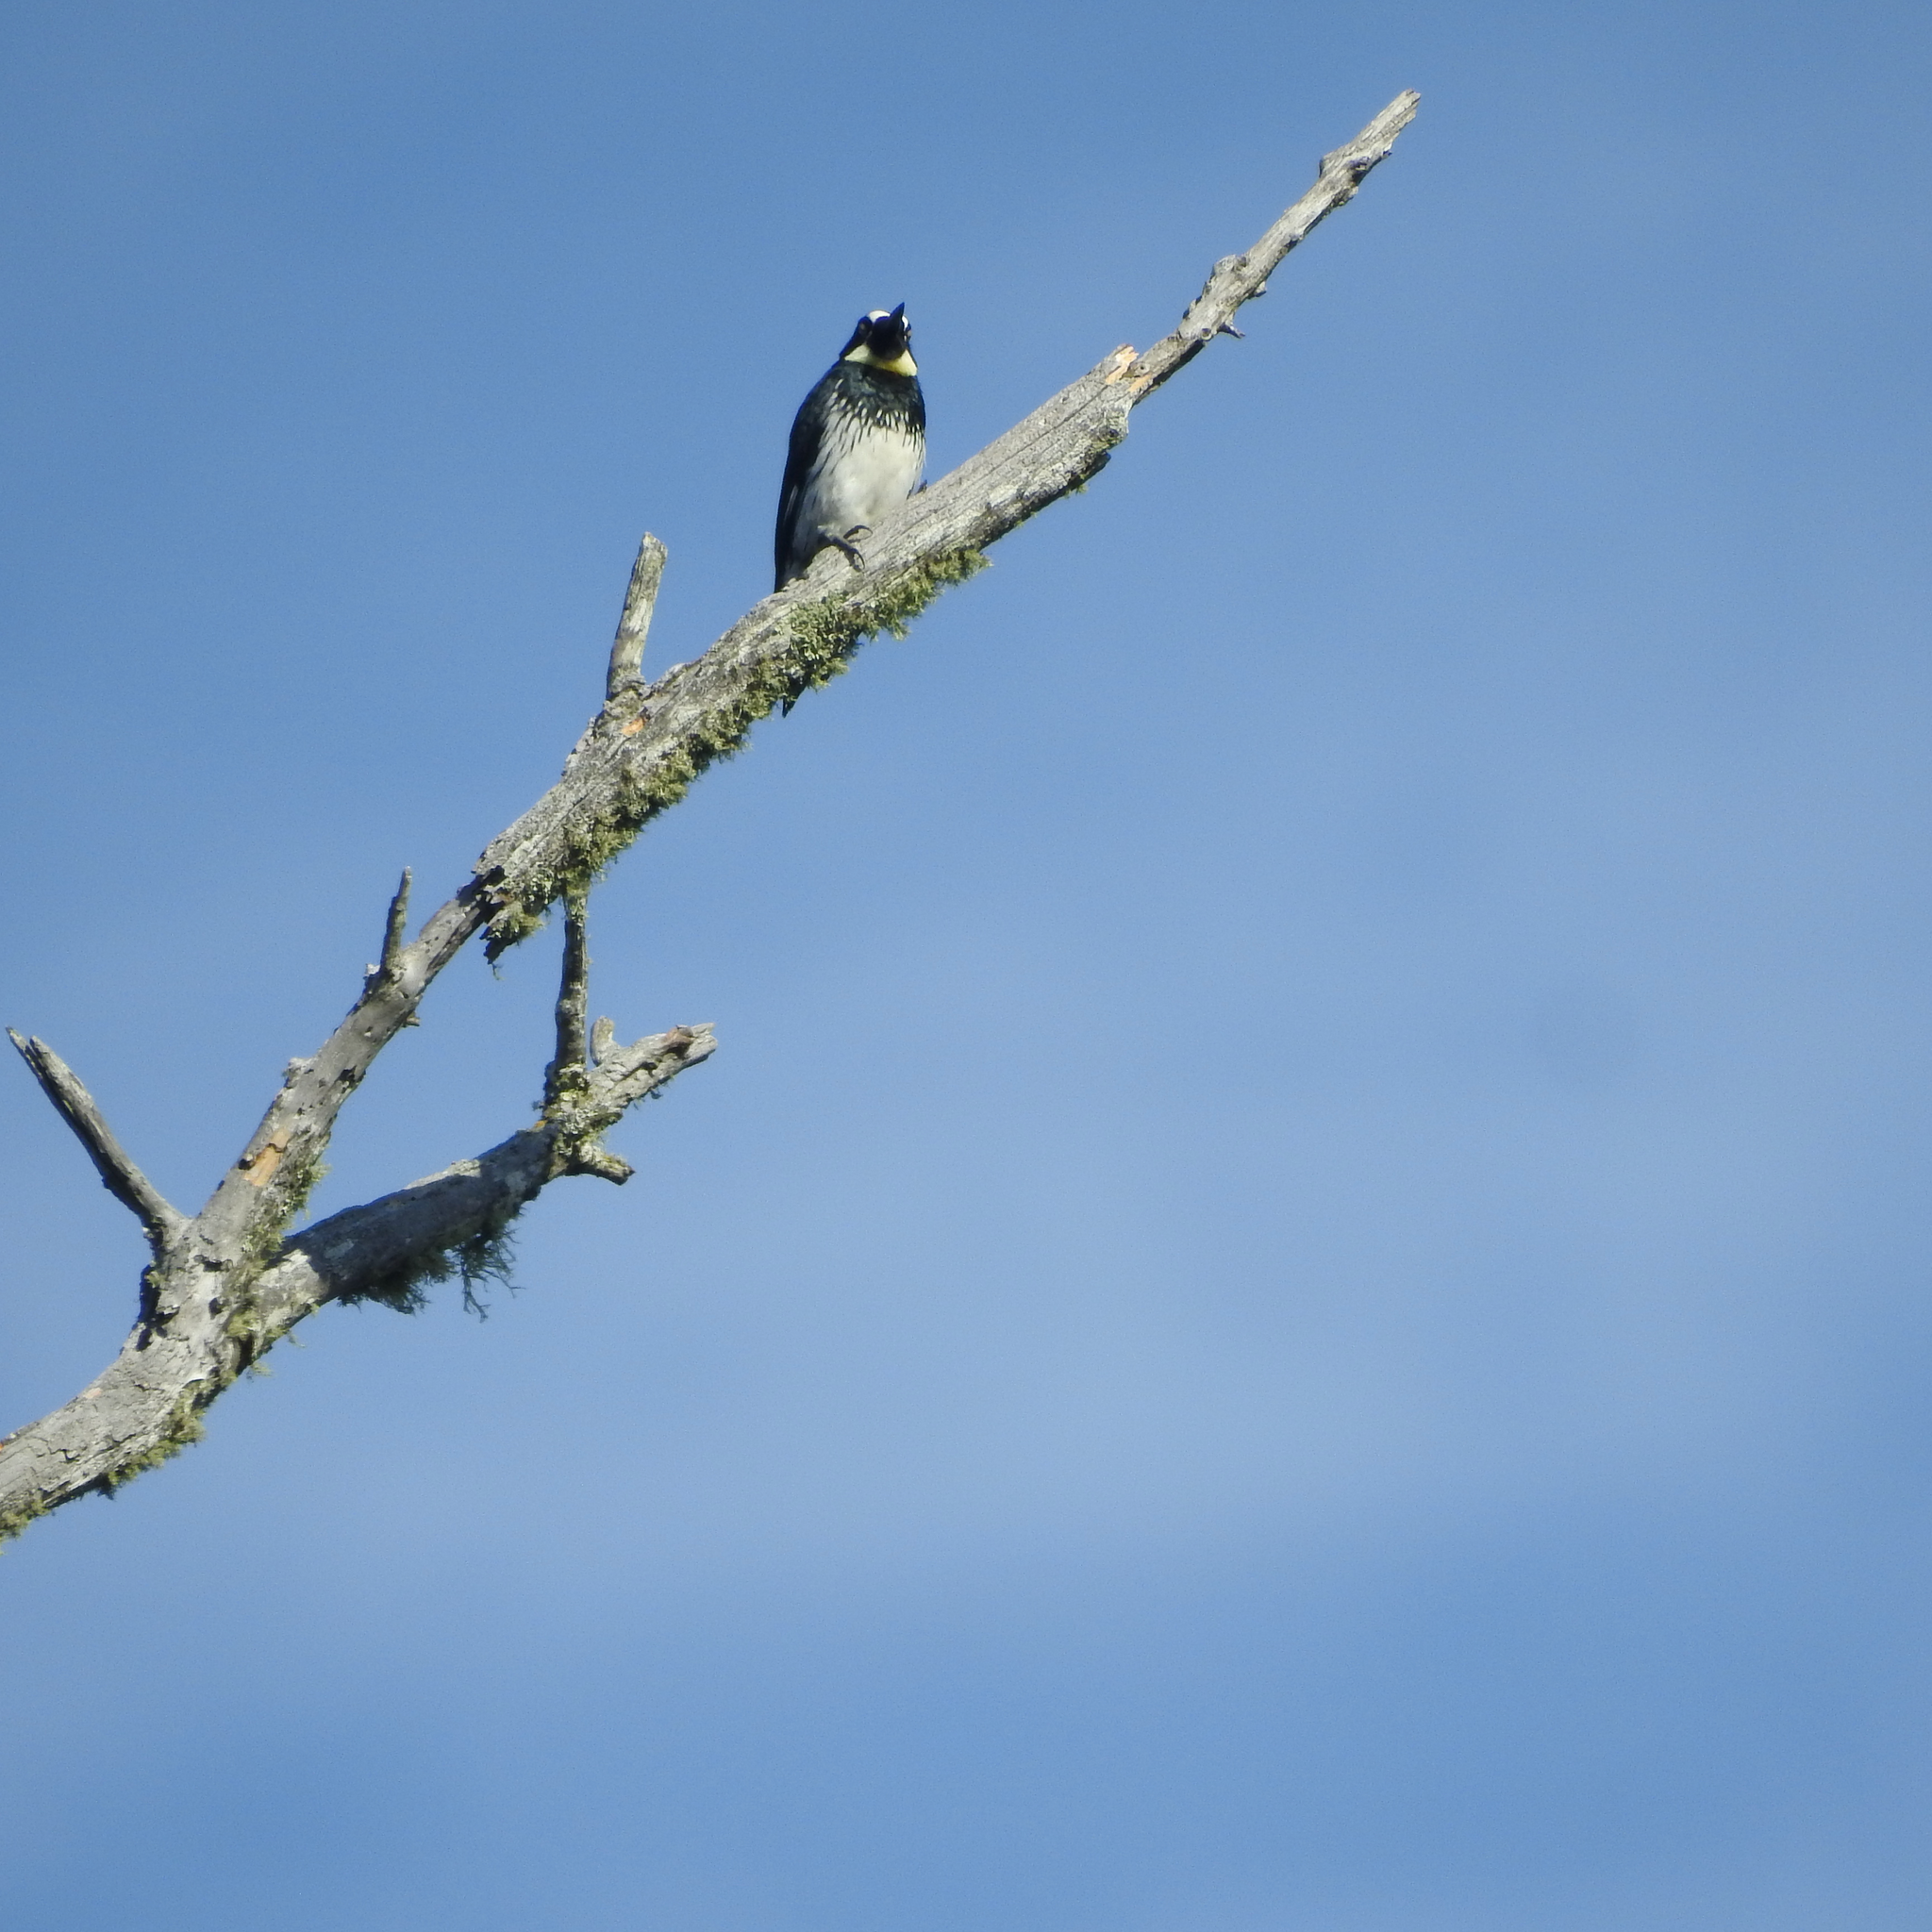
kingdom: Animalia
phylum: Chordata
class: Aves
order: Piciformes
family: Picidae
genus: Melanerpes
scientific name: Melanerpes formicivorus
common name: Acorn woodpecker
